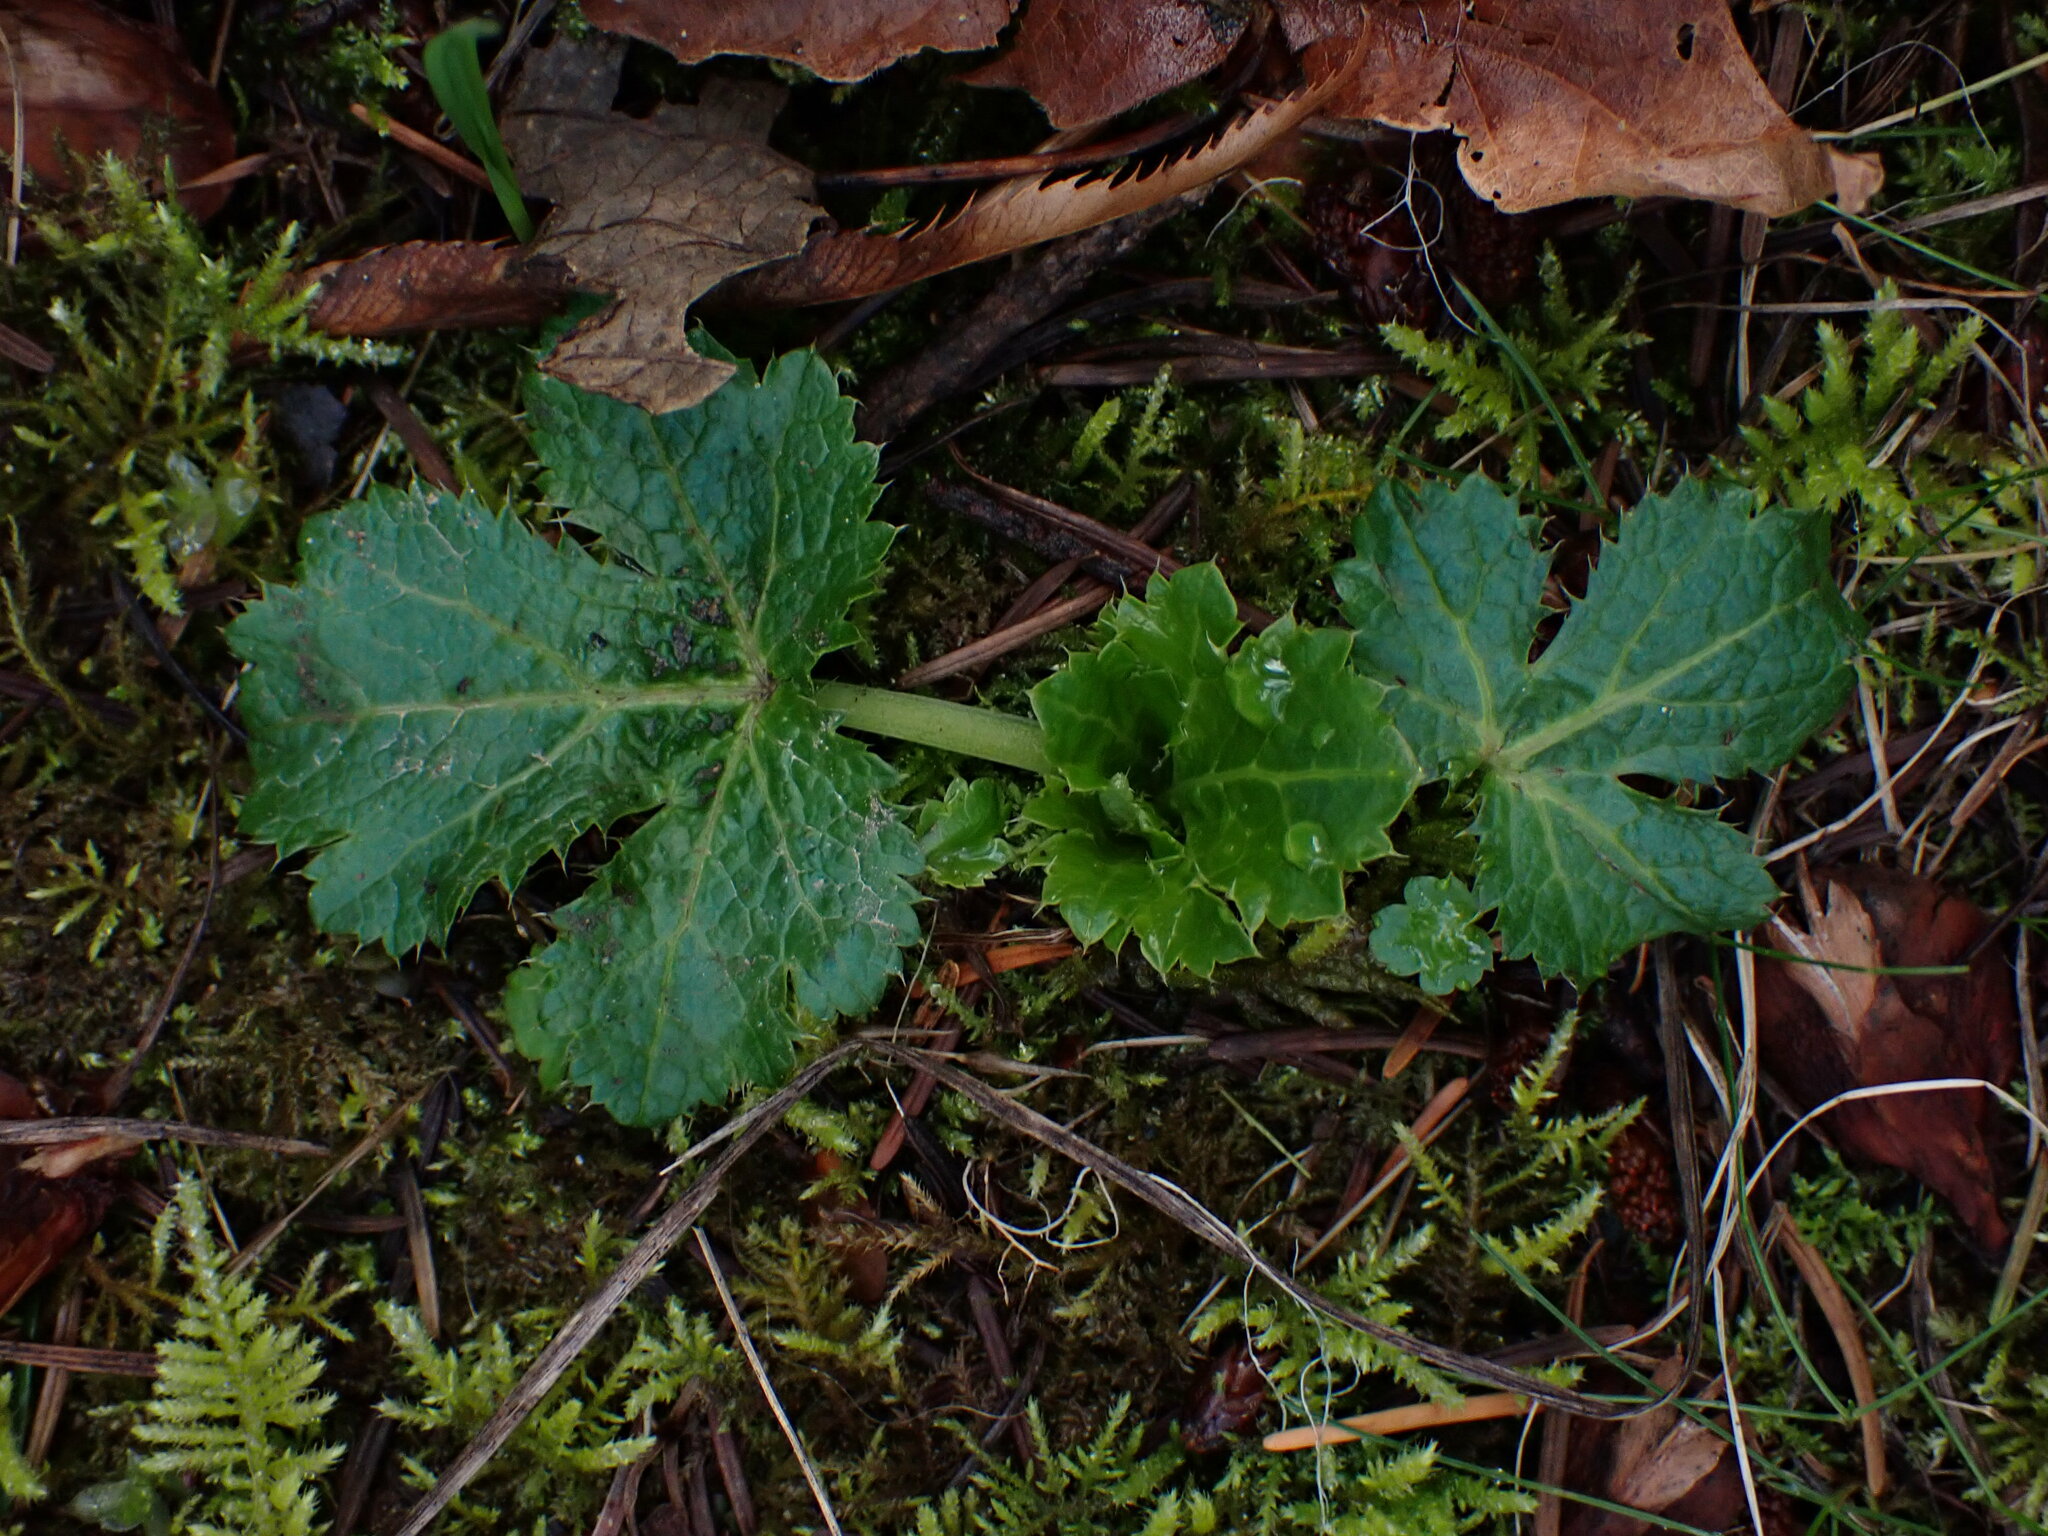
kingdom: Plantae
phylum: Tracheophyta
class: Magnoliopsida
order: Apiales
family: Apiaceae
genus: Sanicula
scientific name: Sanicula crassicaulis
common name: Western snakeroot
